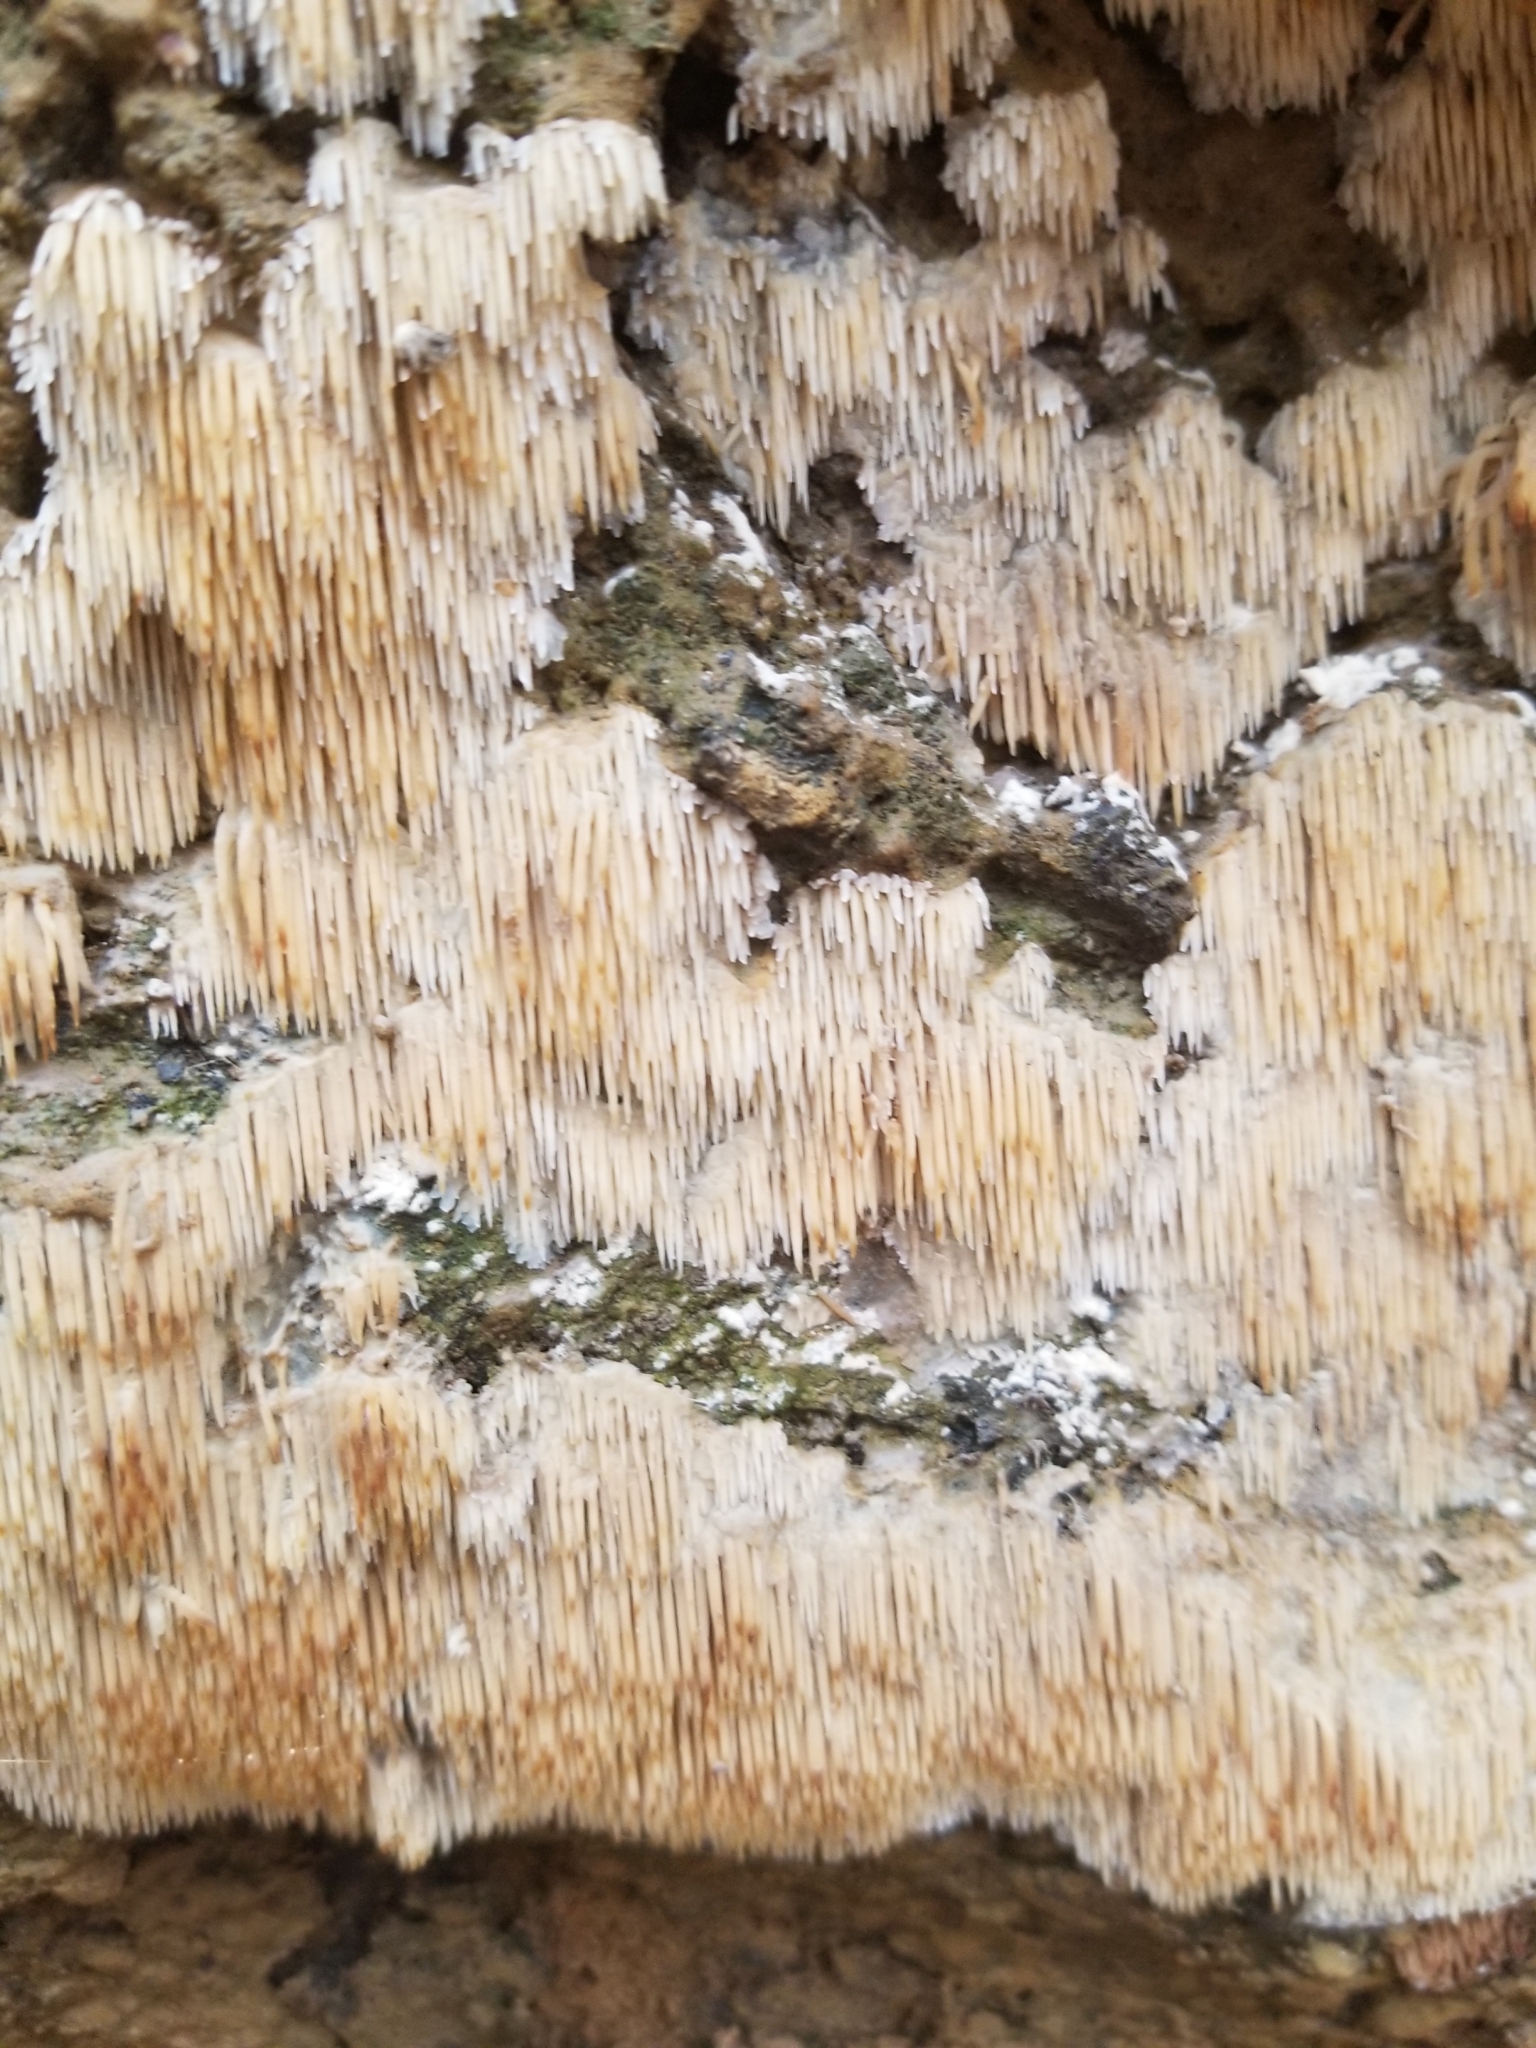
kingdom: Fungi
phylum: Basidiomycota
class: Agaricomycetes
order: Agaricales
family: Radulomycetaceae
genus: Radulomyces
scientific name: Radulomyces copelandii
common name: Asian beauty
